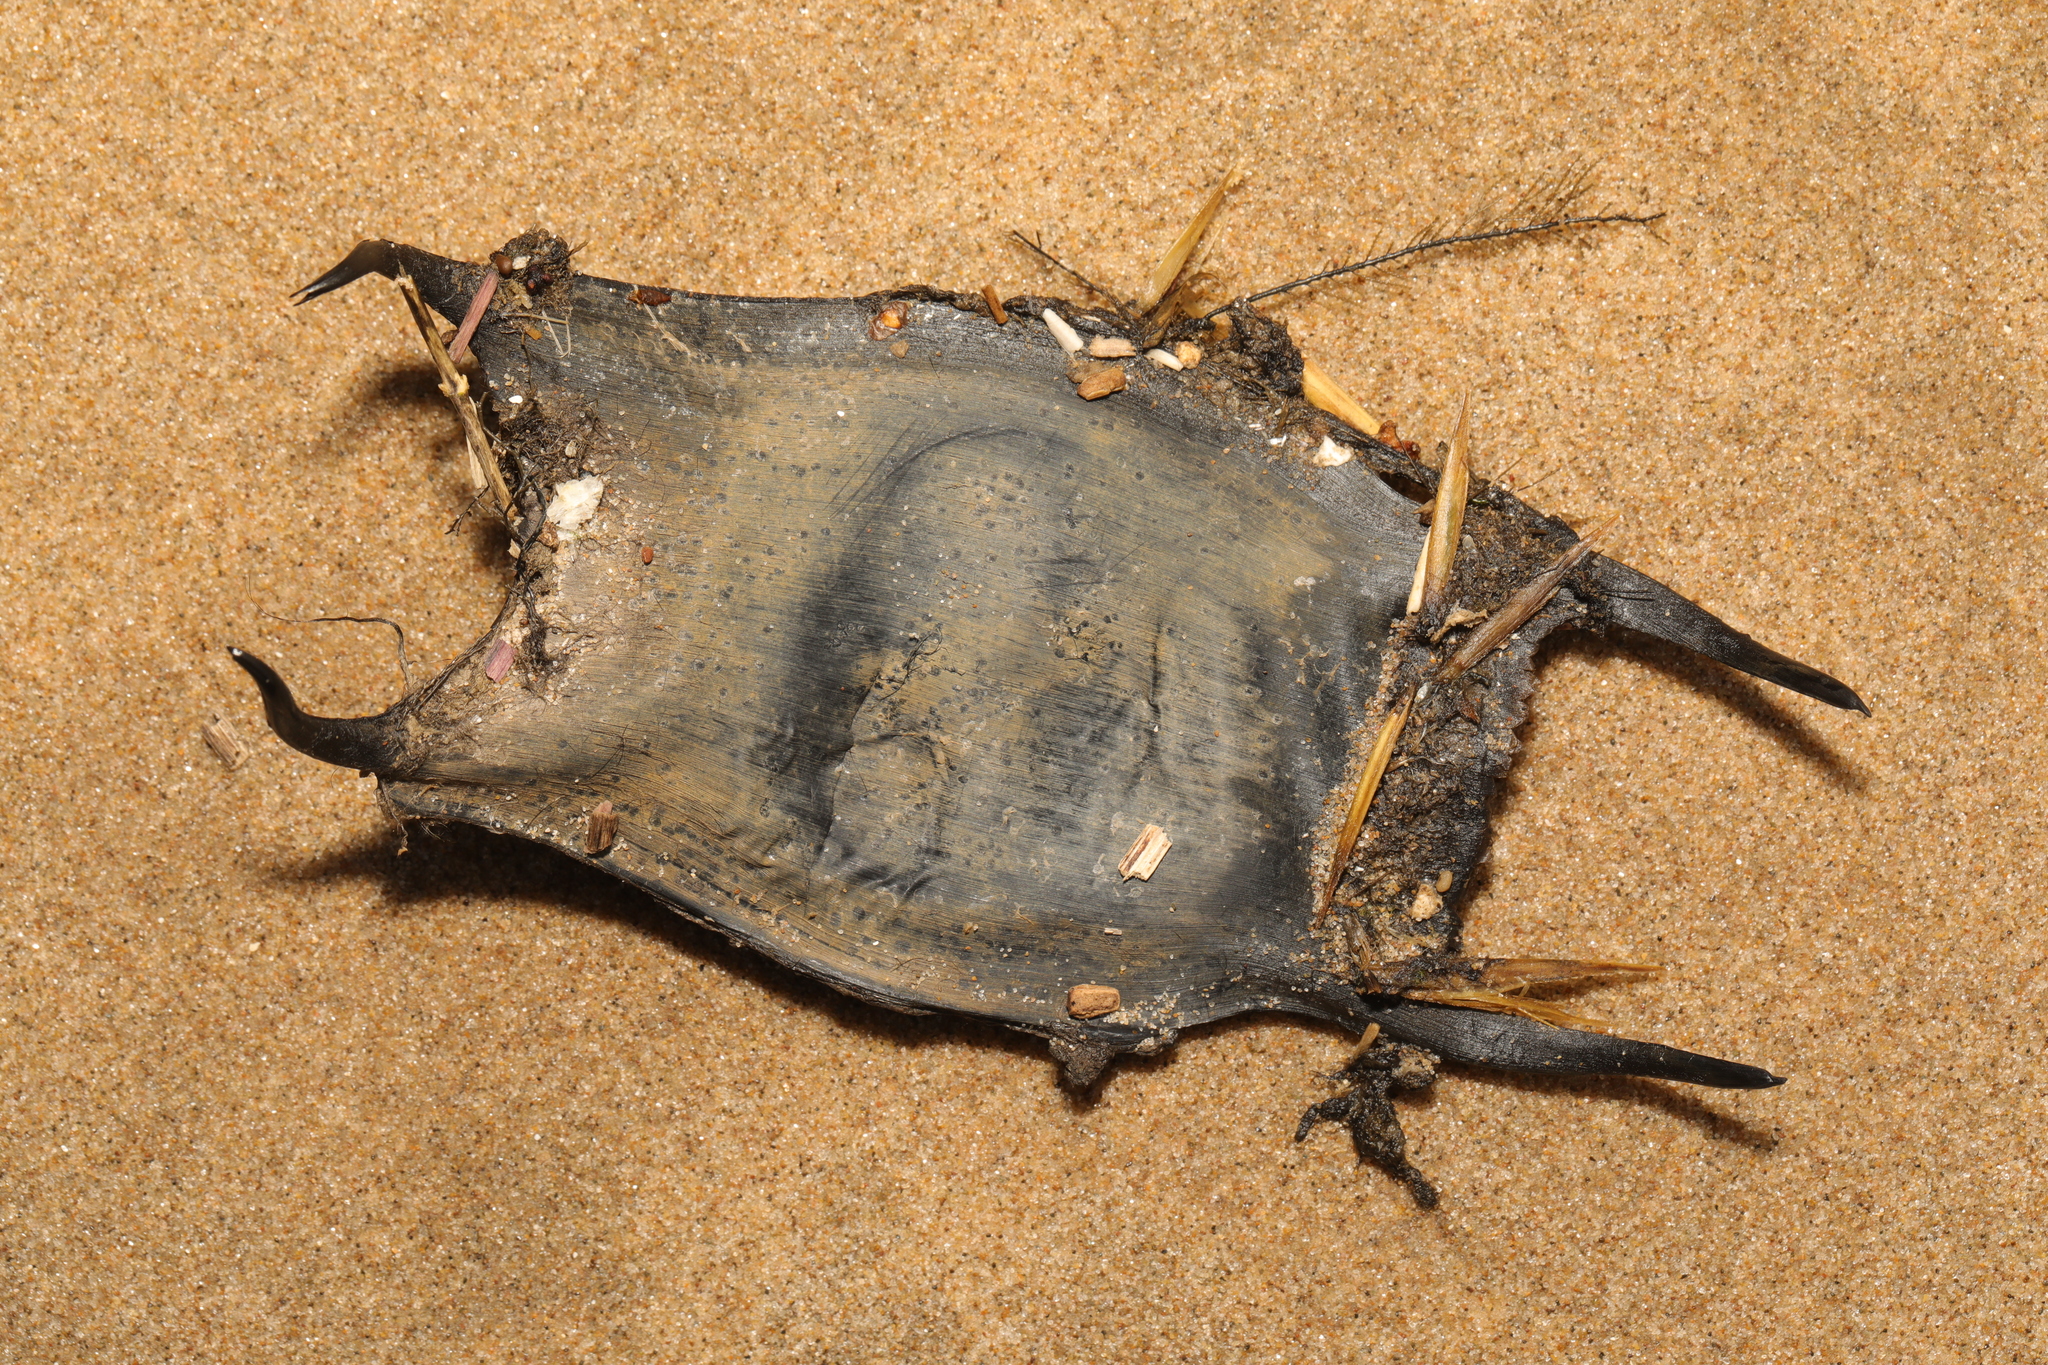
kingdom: Animalia
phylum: Chordata
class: Elasmobranchii
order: Rajiformes
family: Rajidae
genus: Raja
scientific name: Raja clavata
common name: Thornback ray
